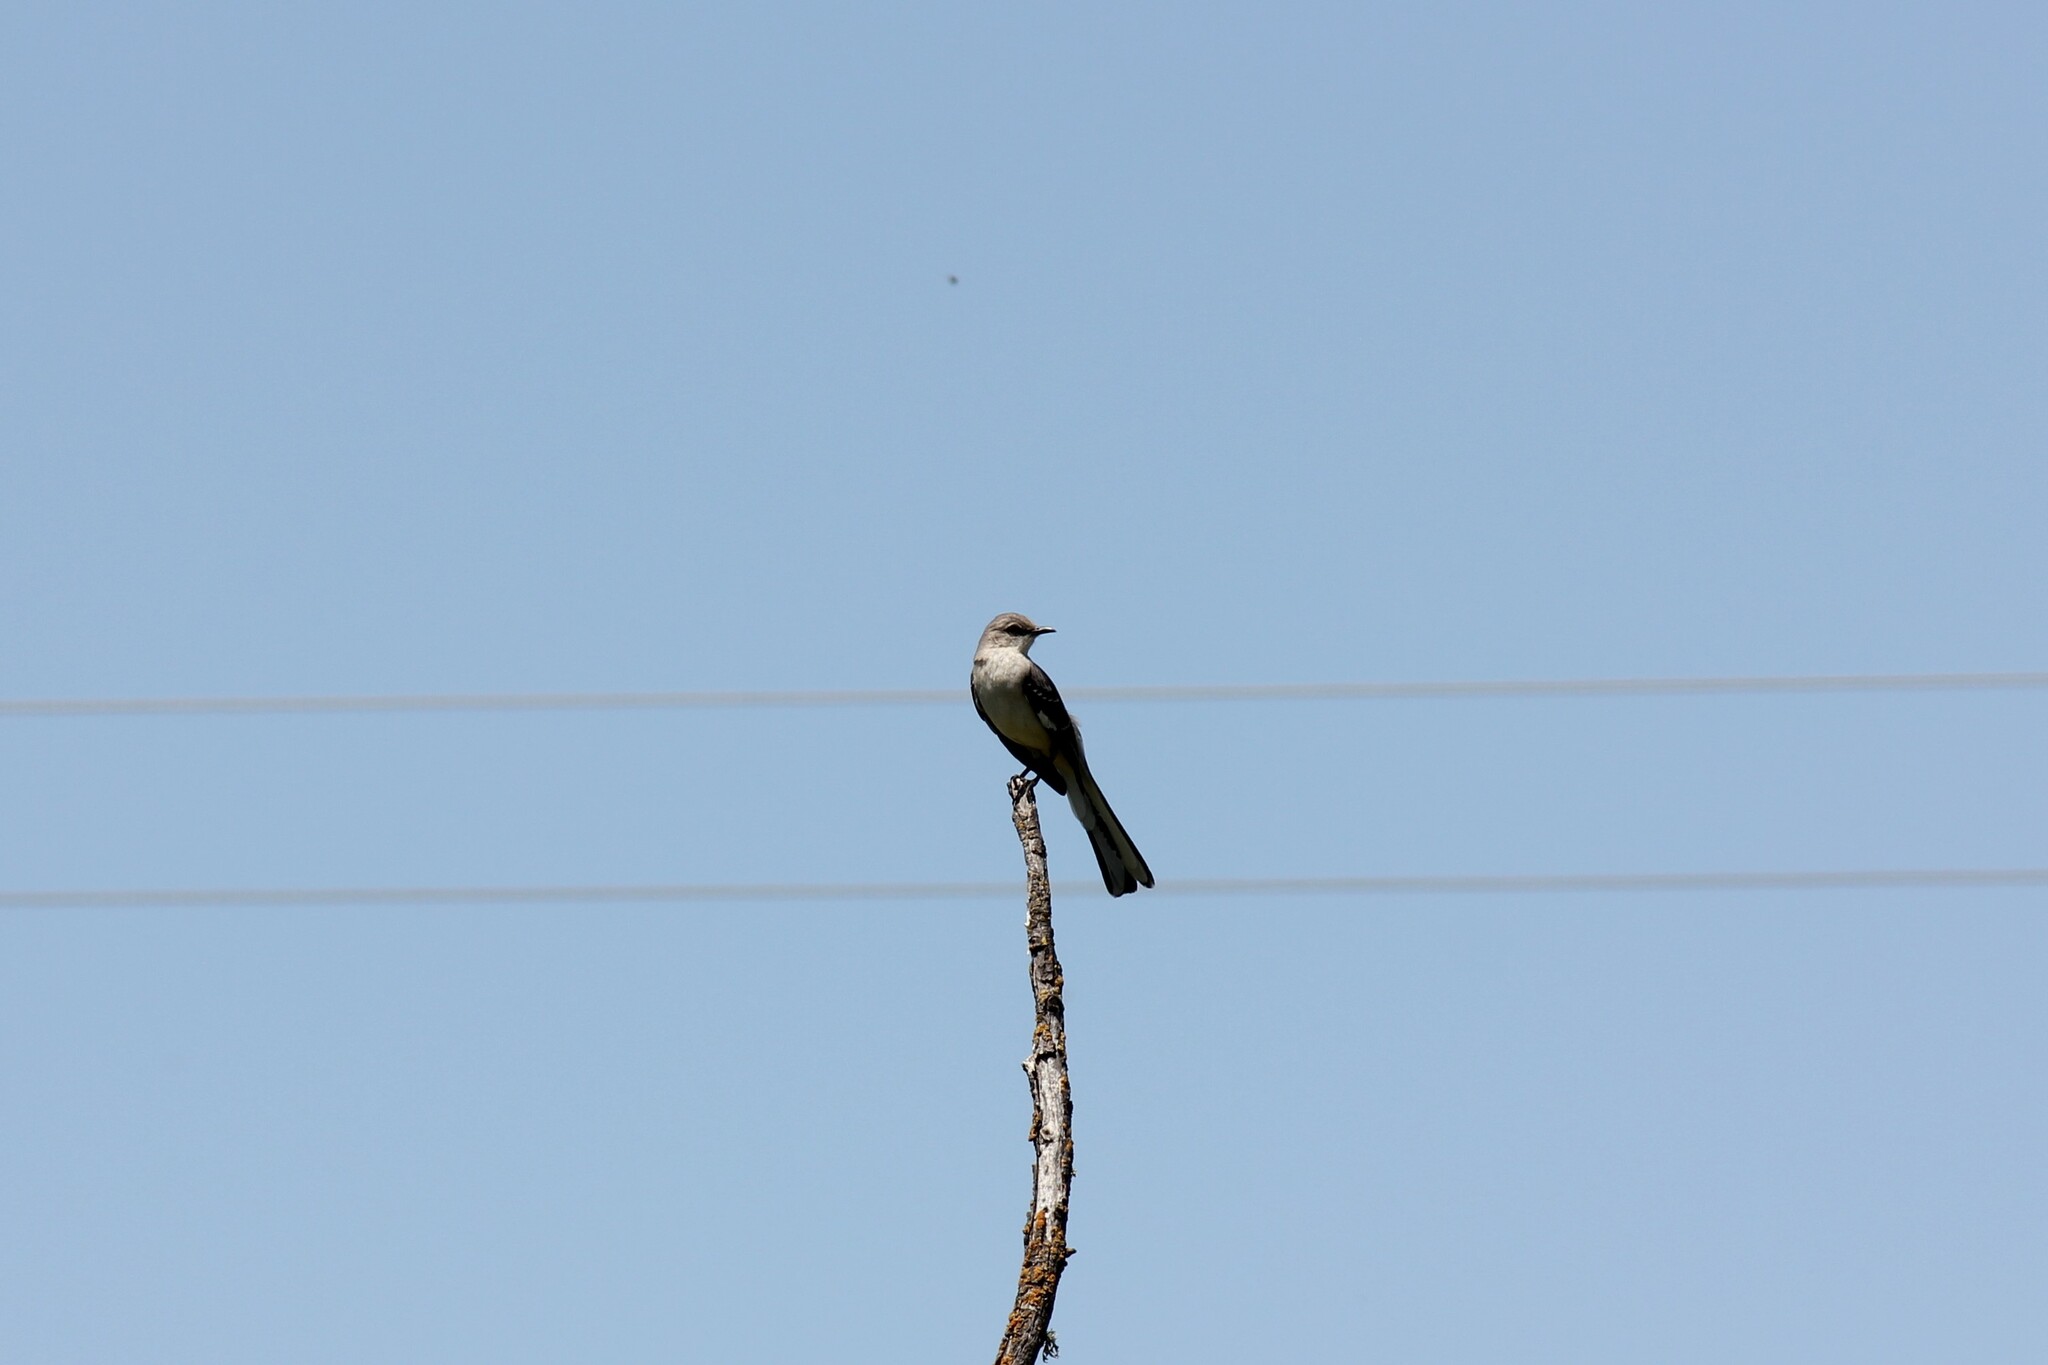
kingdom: Animalia
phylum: Chordata
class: Aves
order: Passeriformes
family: Mimidae
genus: Mimus
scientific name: Mimus polyglottos
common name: Northern mockingbird
